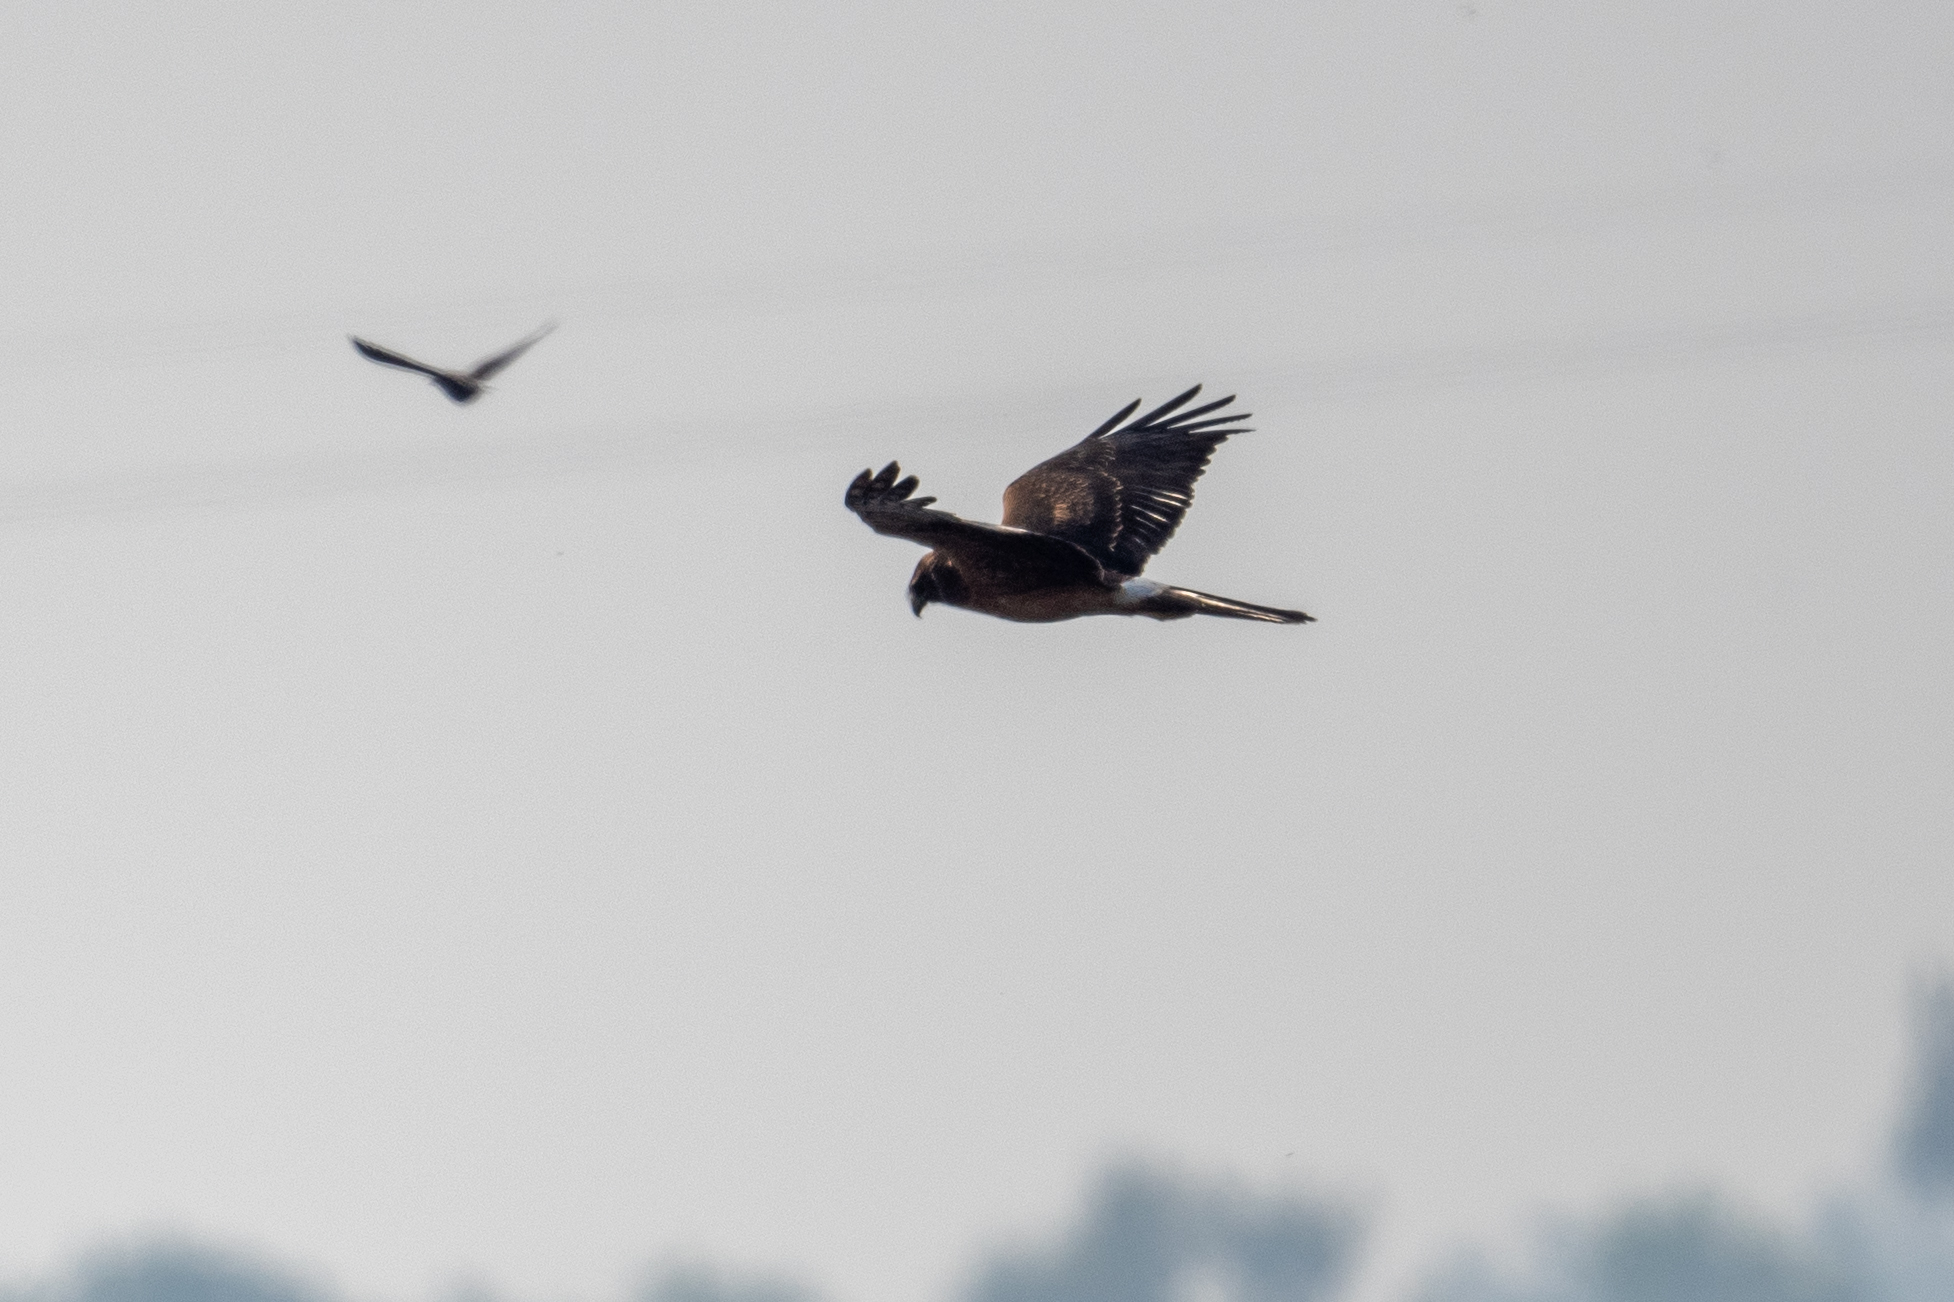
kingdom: Animalia
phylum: Chordata
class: Aves
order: Accipitriformes
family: Accipitridae
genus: Circus
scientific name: Circus cyaneus
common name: Hen harrier
